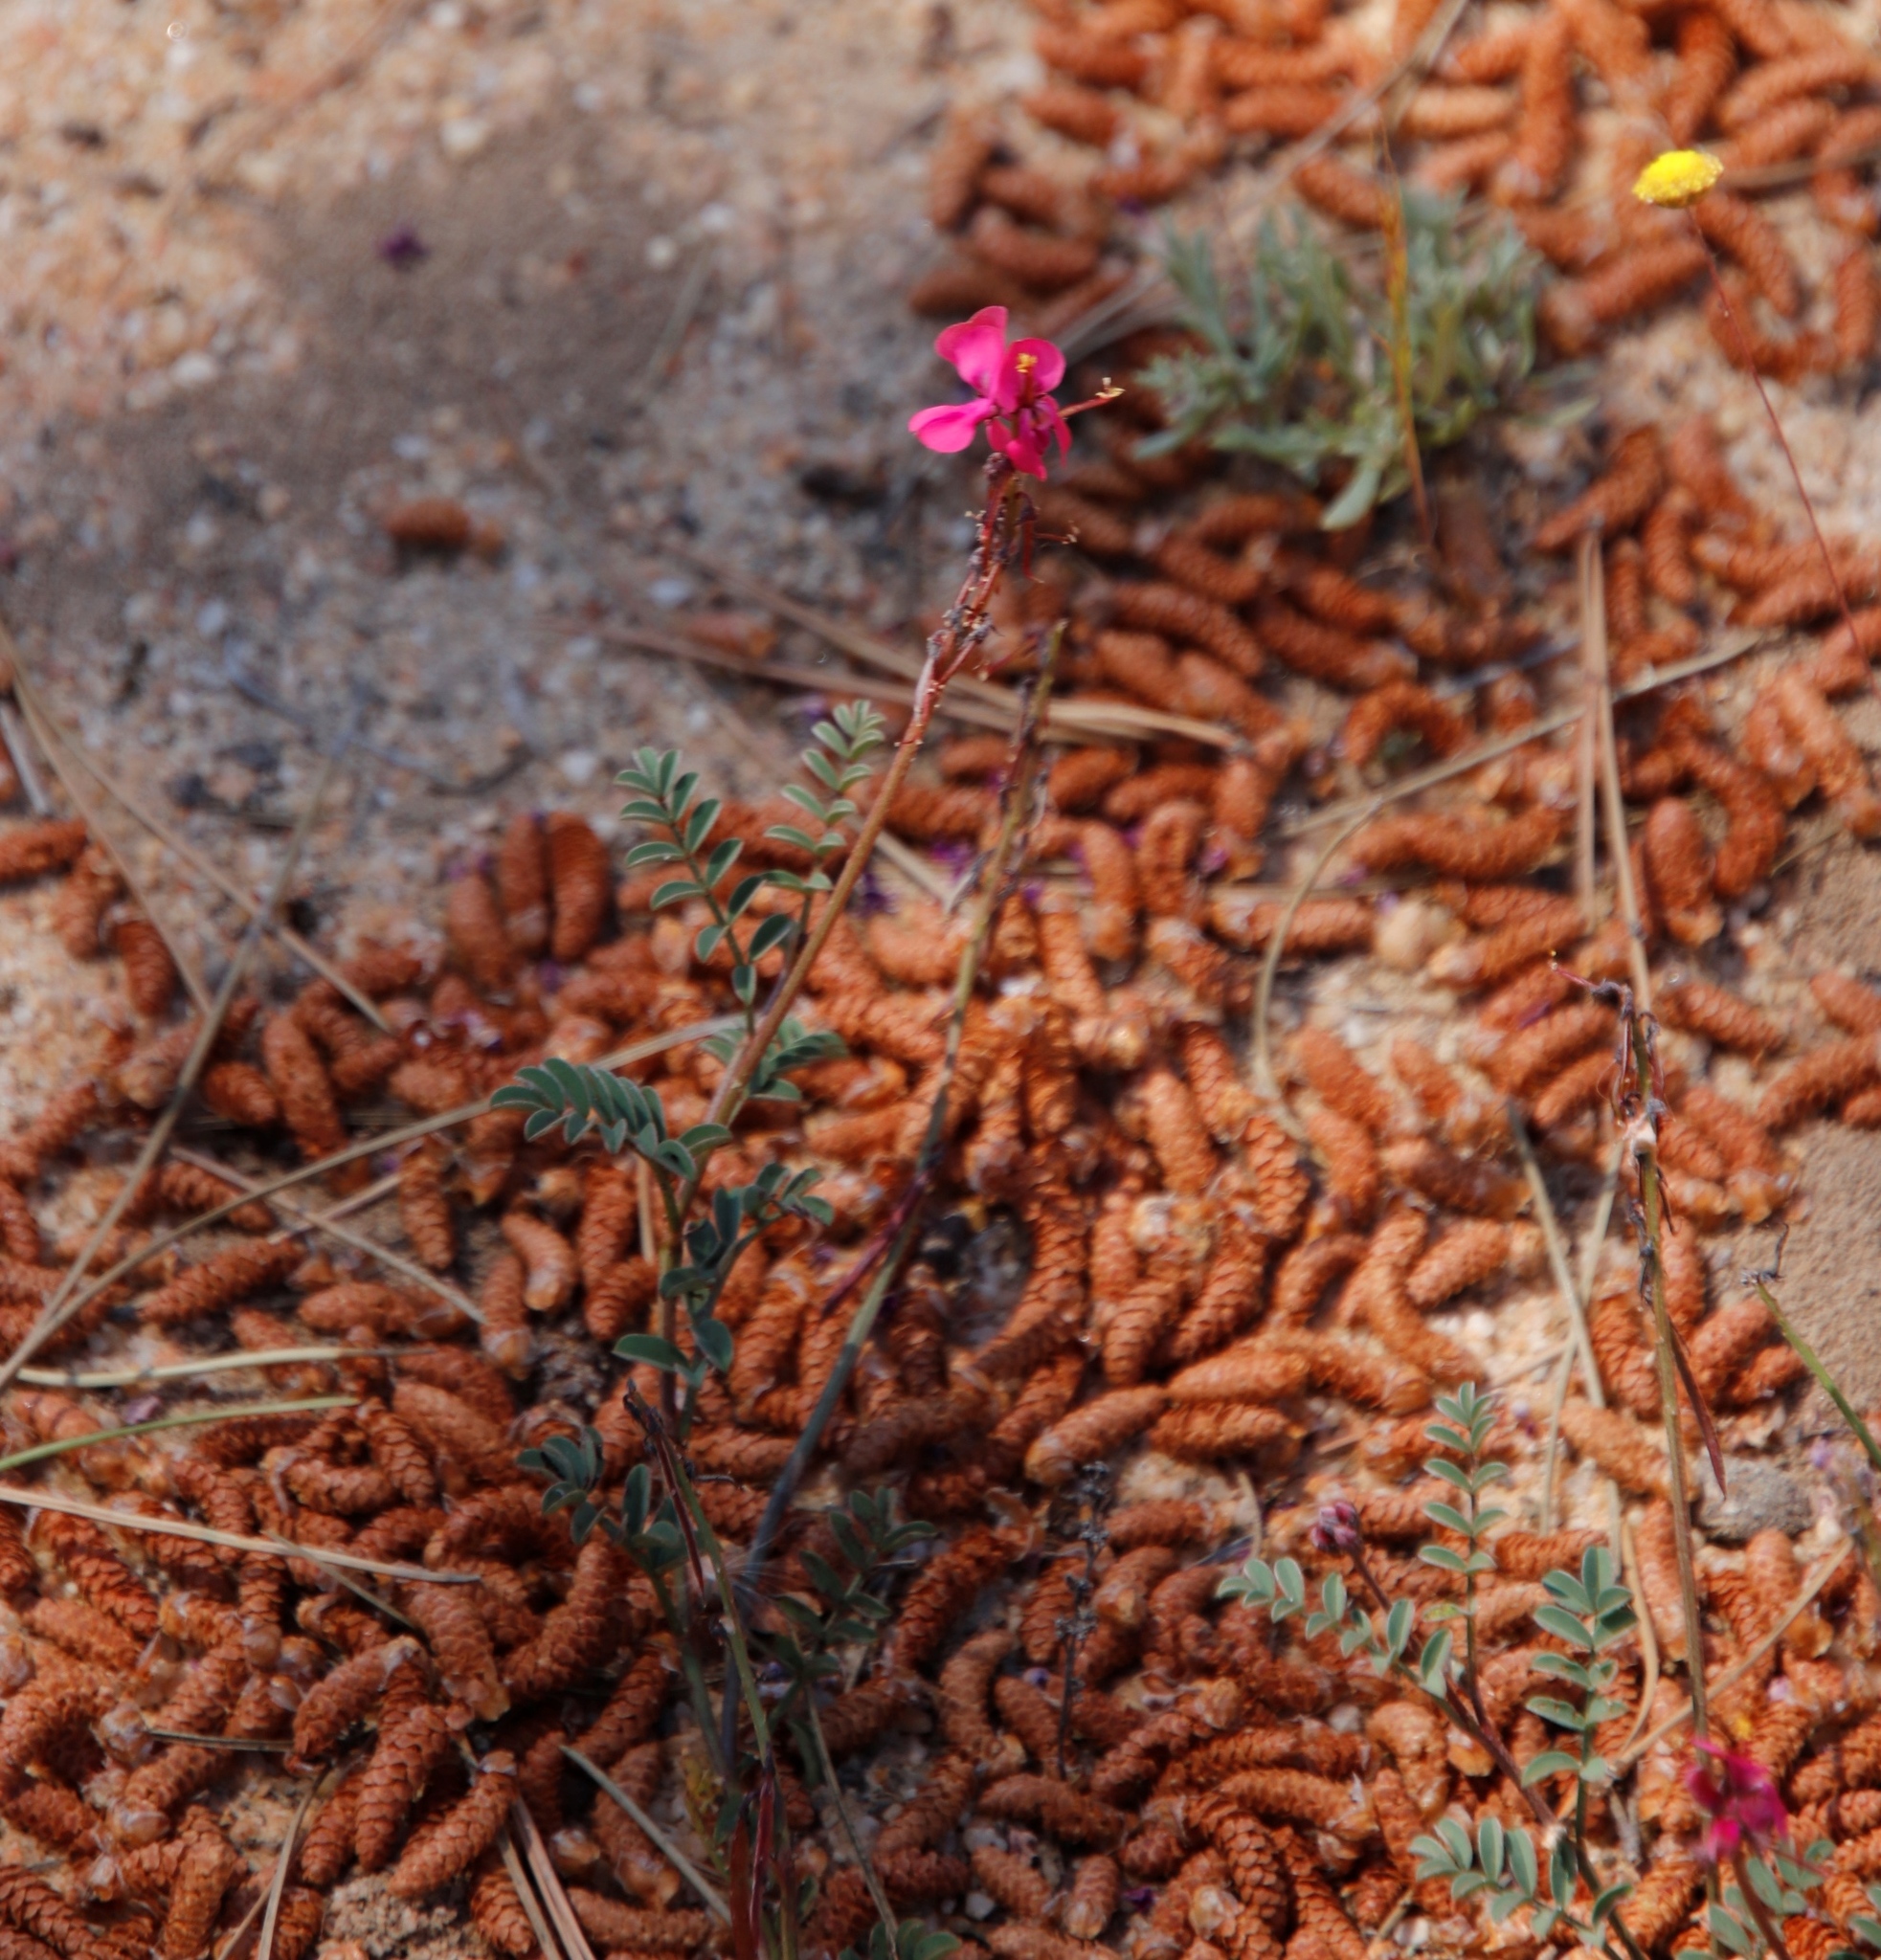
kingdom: Plantae
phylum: Tracheophyta
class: Magnoliopsida
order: Fabales
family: Fabaceae
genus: Indigofera
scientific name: Indigofera
